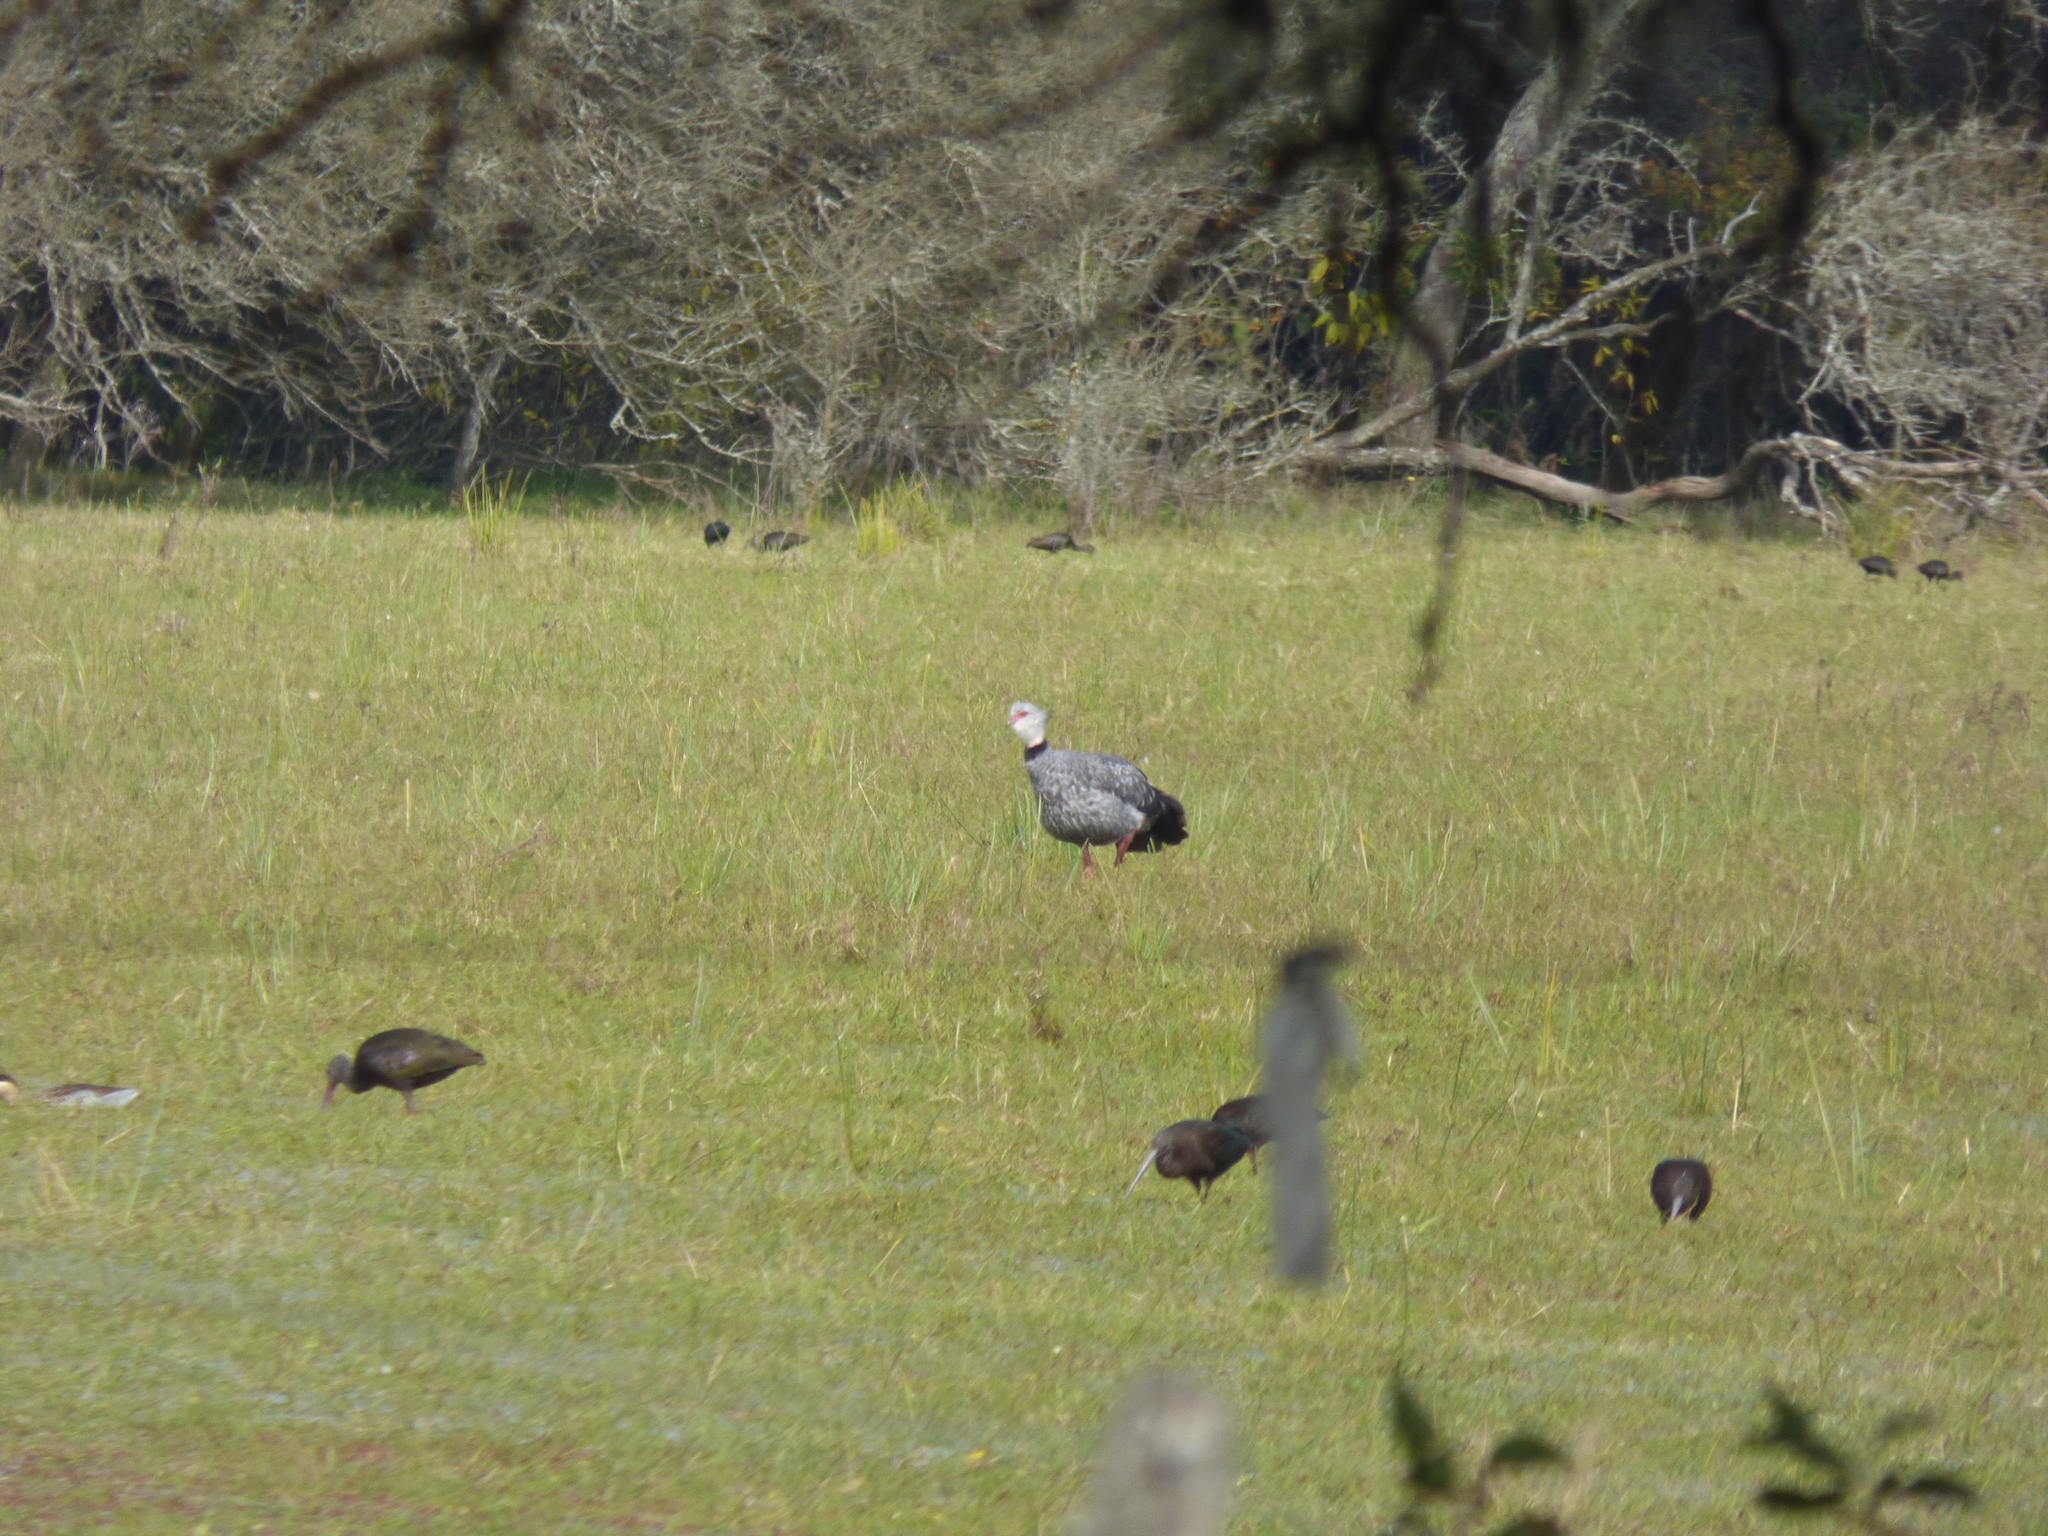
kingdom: Animalia
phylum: Chordata
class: Aves
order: Anseriformes
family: Anhimidae
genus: Chauna
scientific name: Chauna torquata
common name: Southern screamer
